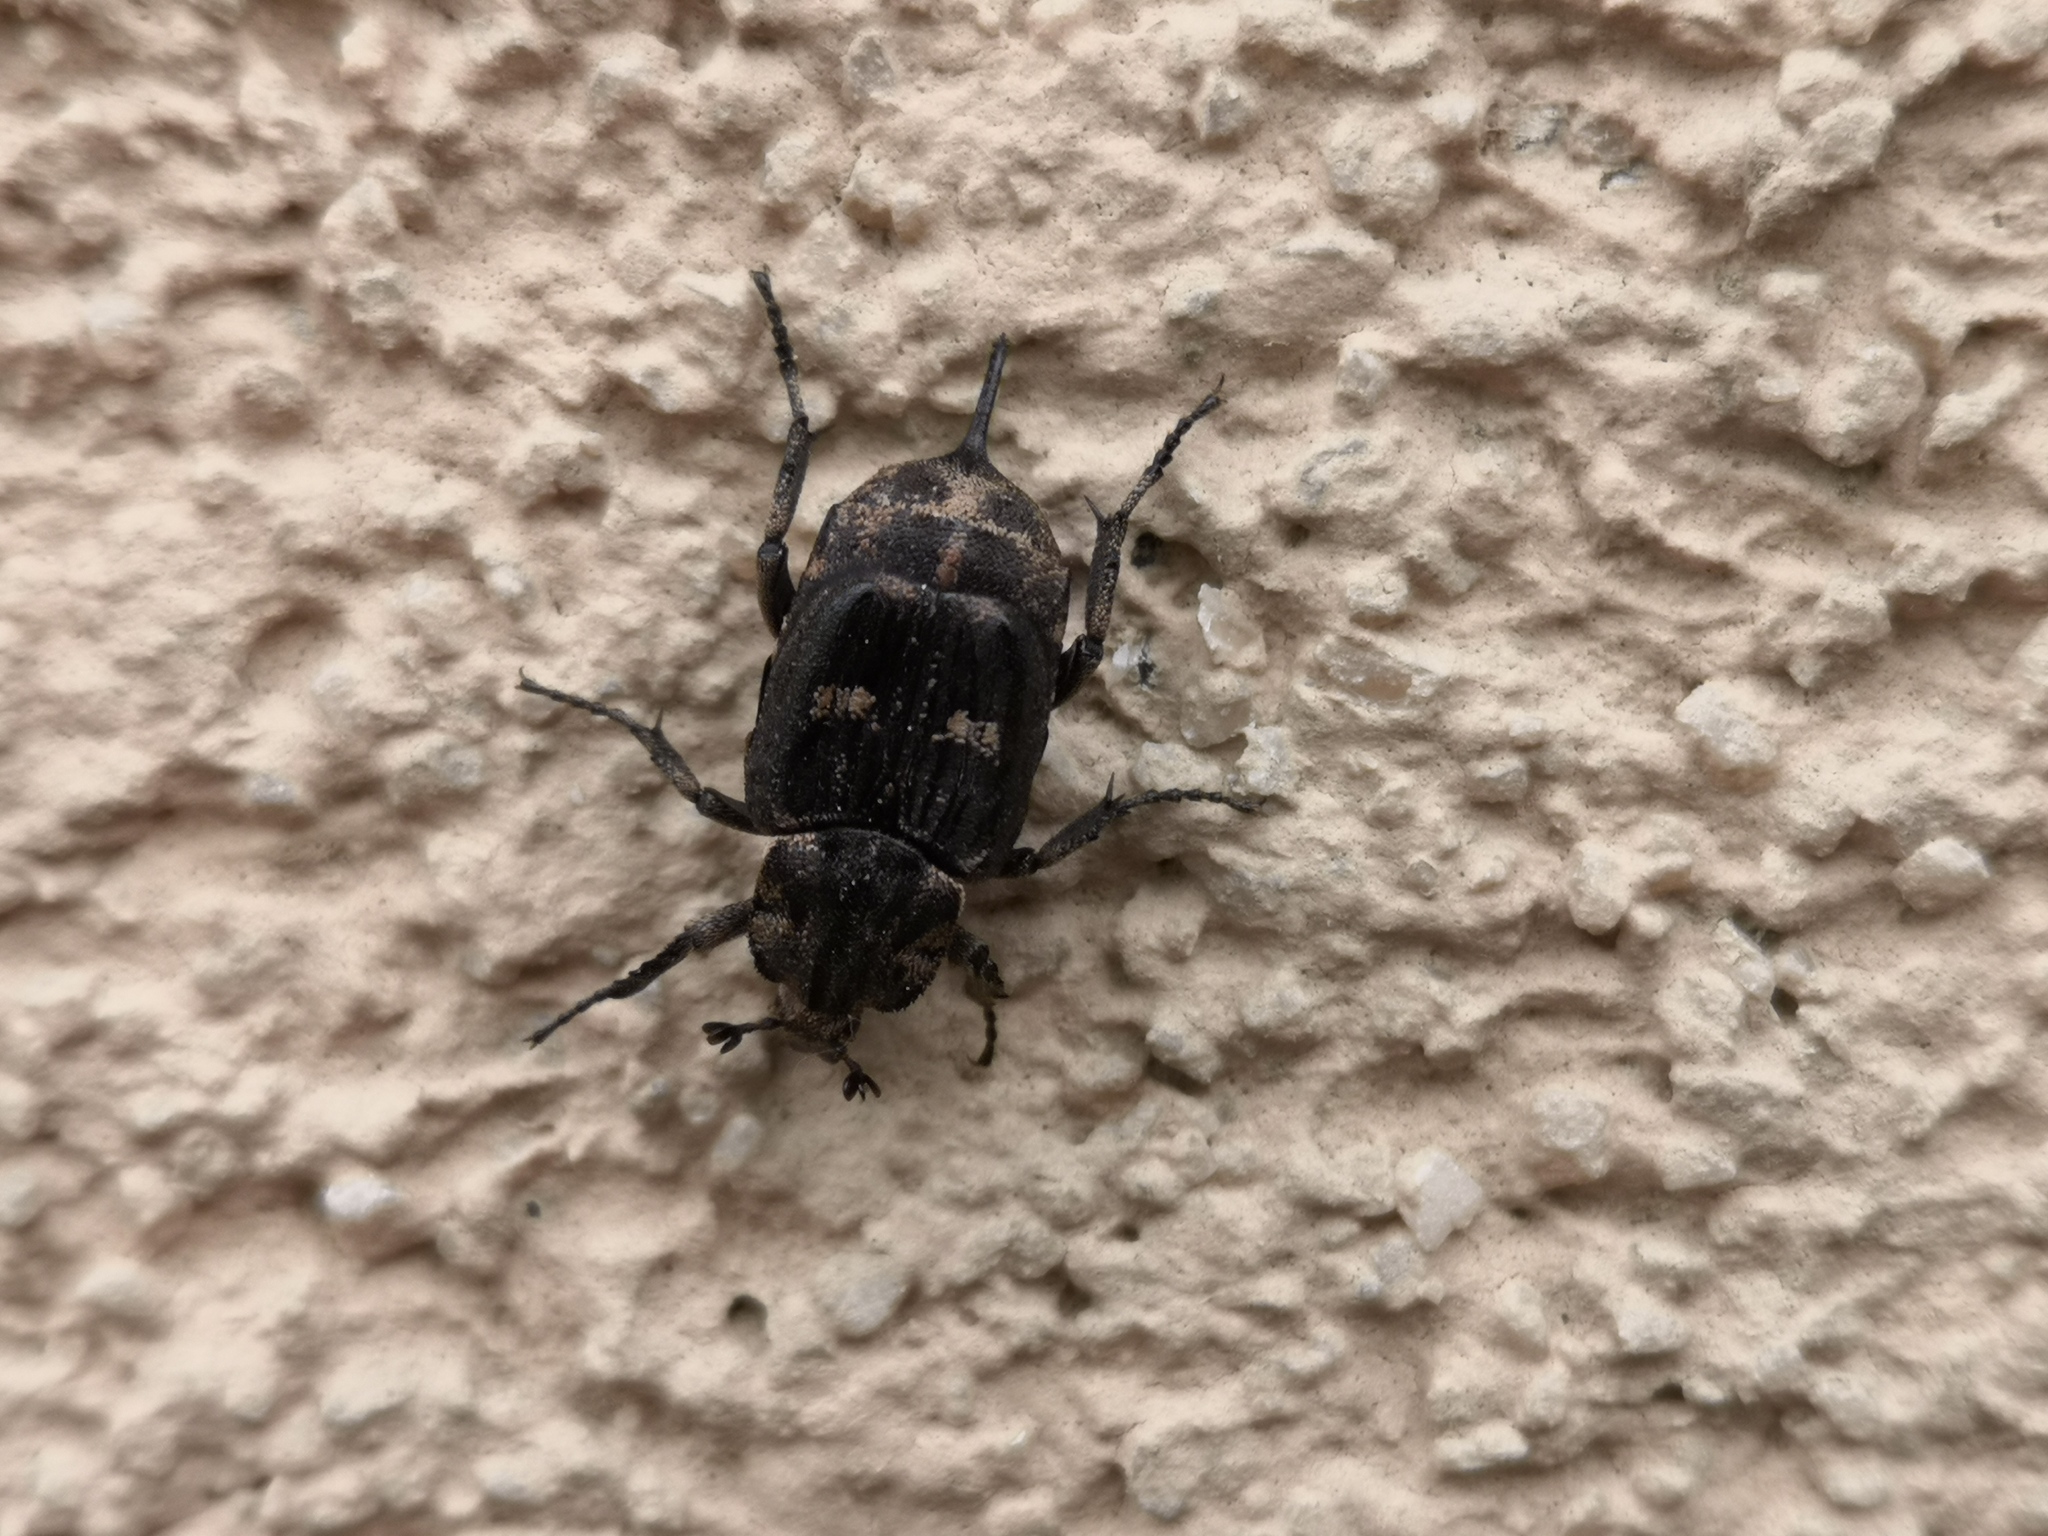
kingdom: Animalia
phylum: Arthropoda
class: Insecta
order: Coleoptera
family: Scarabaeidae
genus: Valgus
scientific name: Valgus hemipterus
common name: Bug flower chafer
